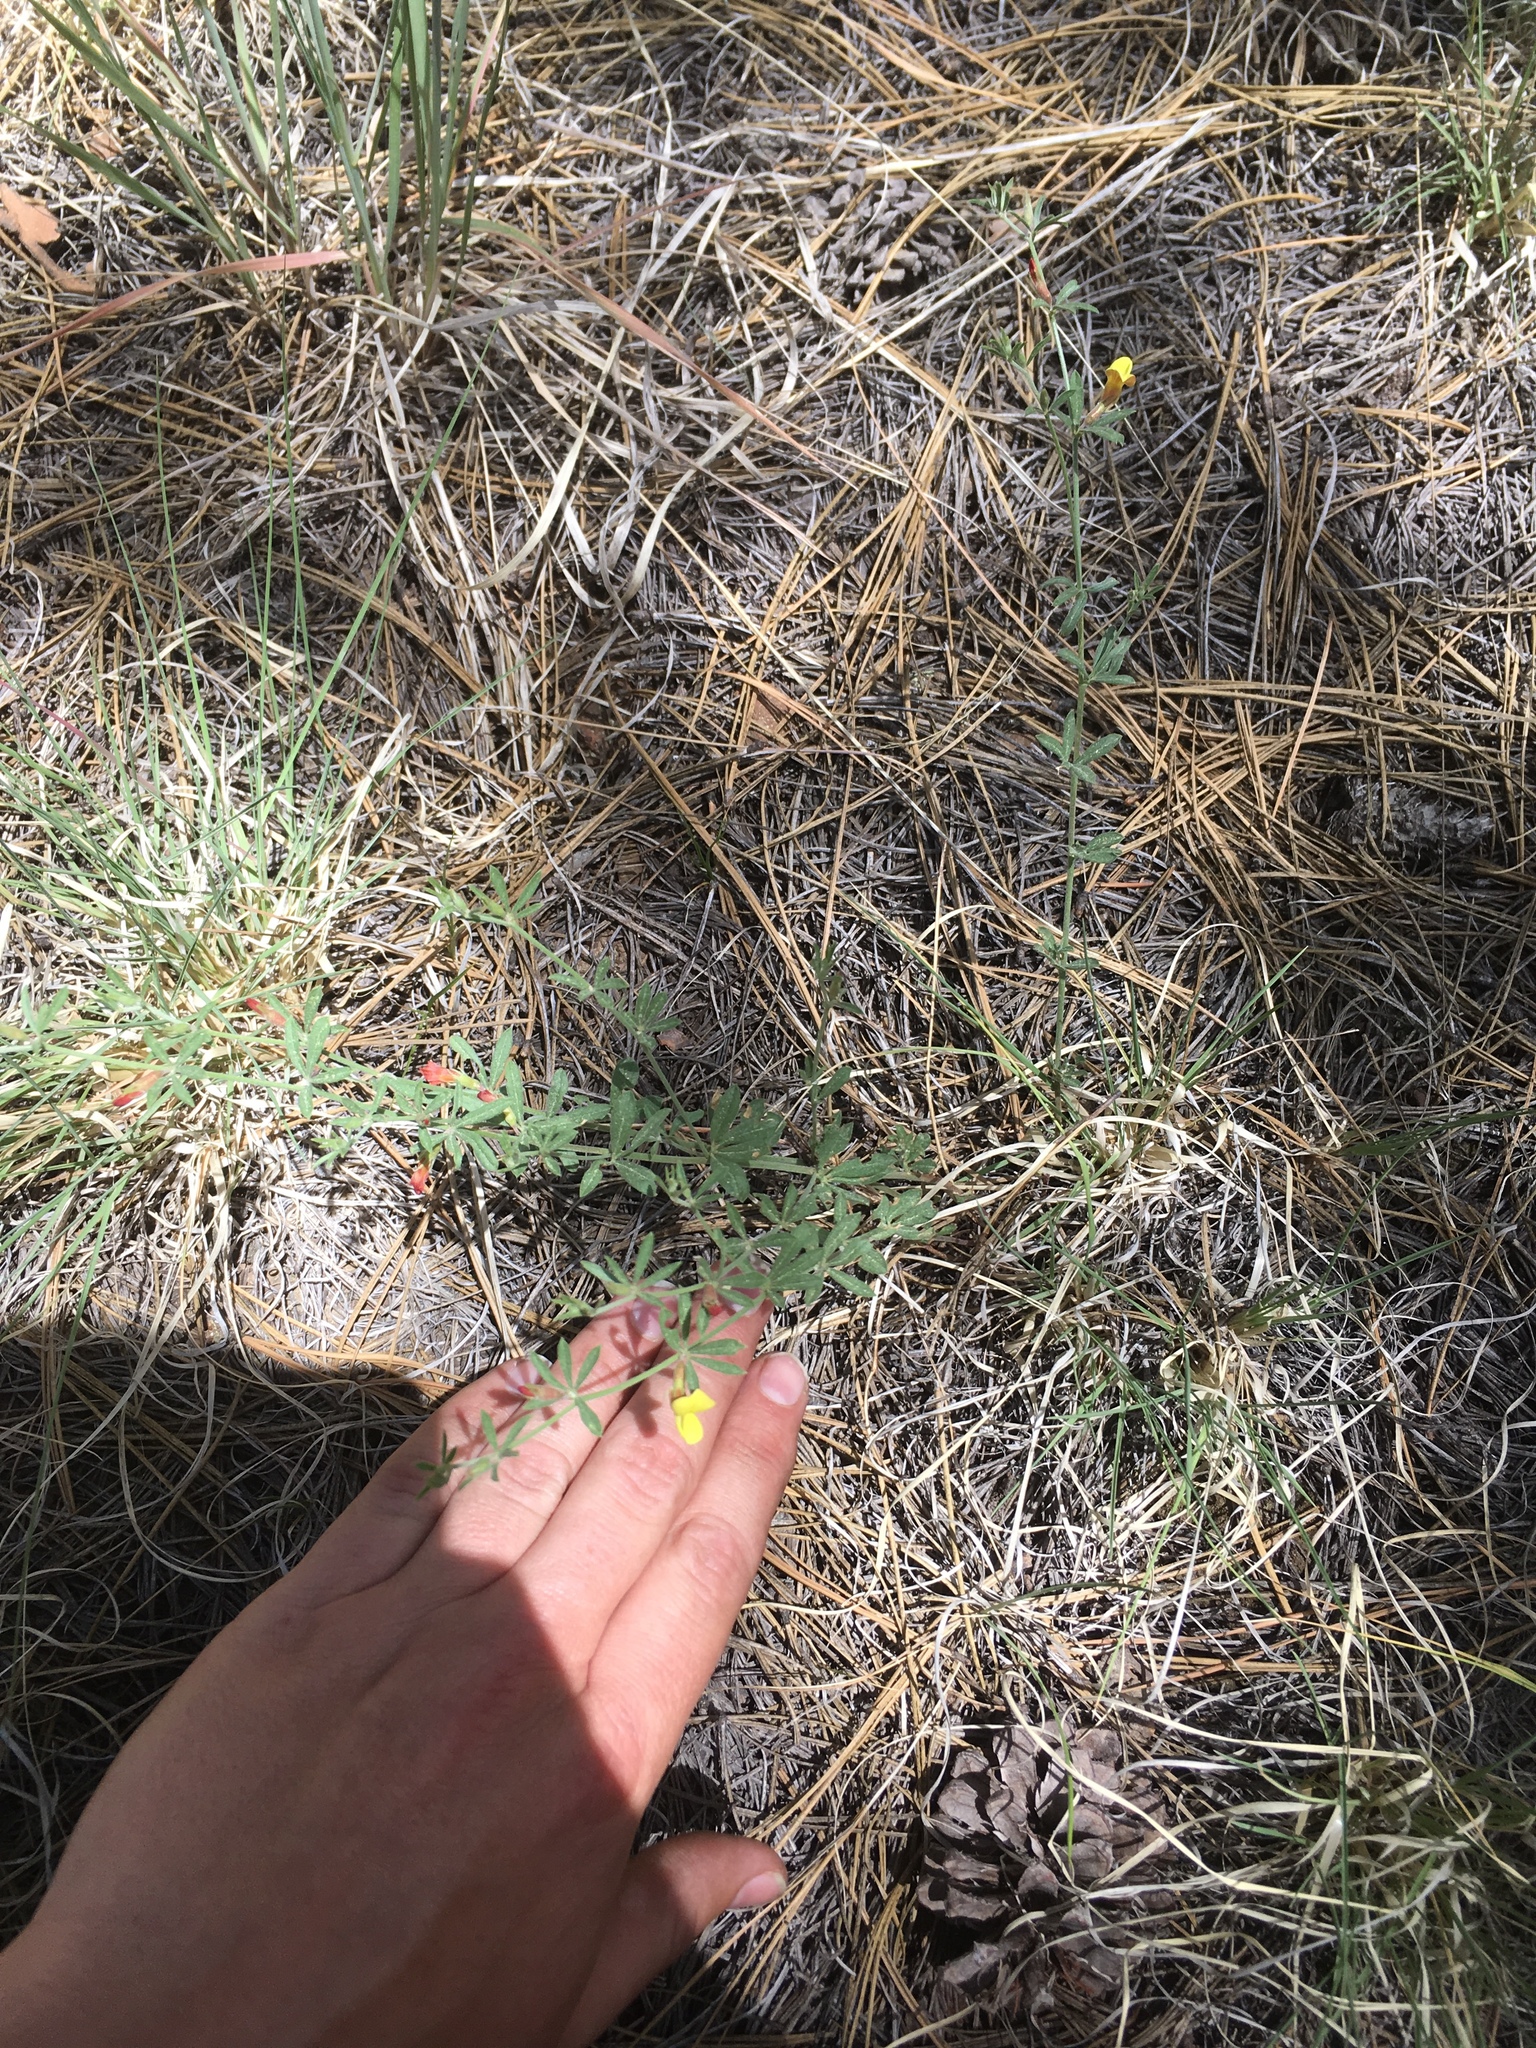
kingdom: Plantae
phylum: Tracheophyta
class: Magnoliopsida
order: Fabales
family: Fabaceae
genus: Acmispon
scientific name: Acmispon wrightii
